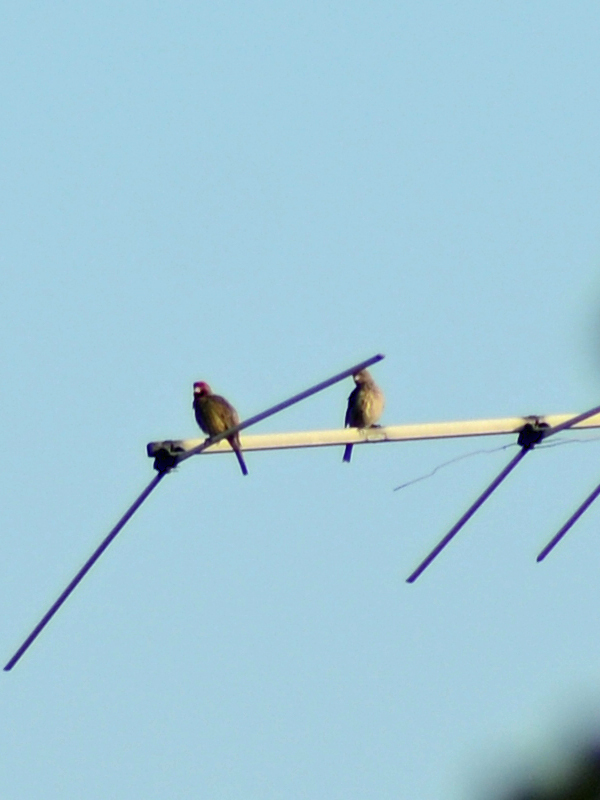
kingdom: Animalia
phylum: Chordata
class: Aves
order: Passeriformes
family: Fringillidae
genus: Haemorhous
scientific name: Haemorhous mexicanus
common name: House finch
